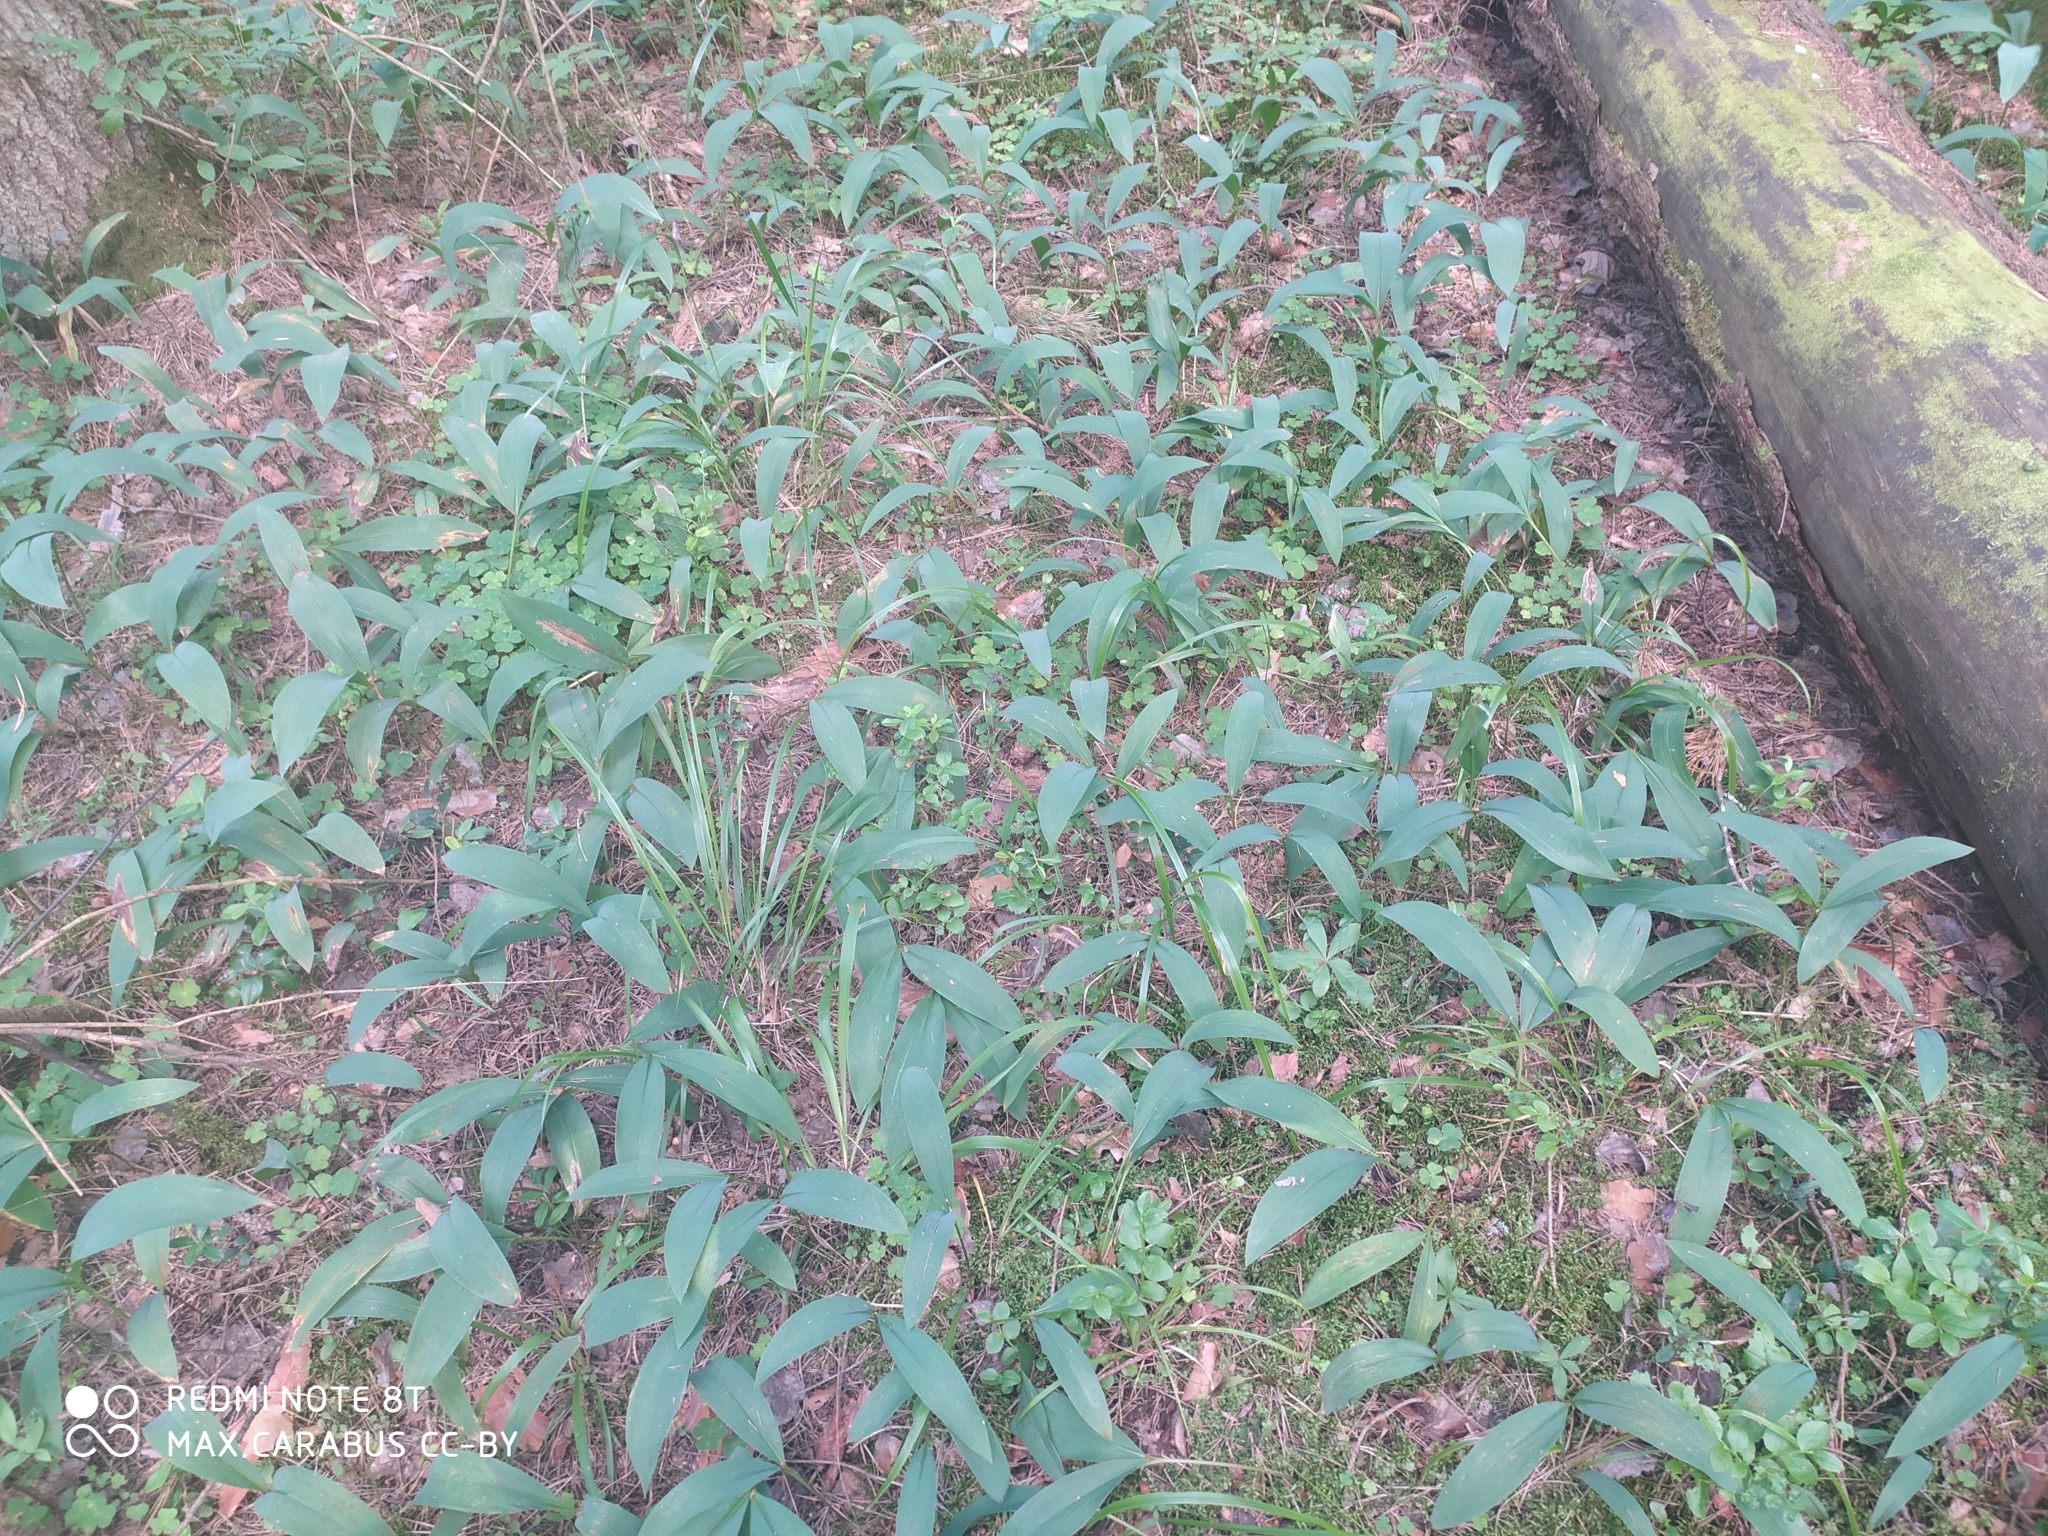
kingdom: Plantae
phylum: Tracheophyta
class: Liliopsida
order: Asparagales
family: Asparagaceae
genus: Convallaria
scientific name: Convallaria majalis
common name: Lily-of-the-valley
